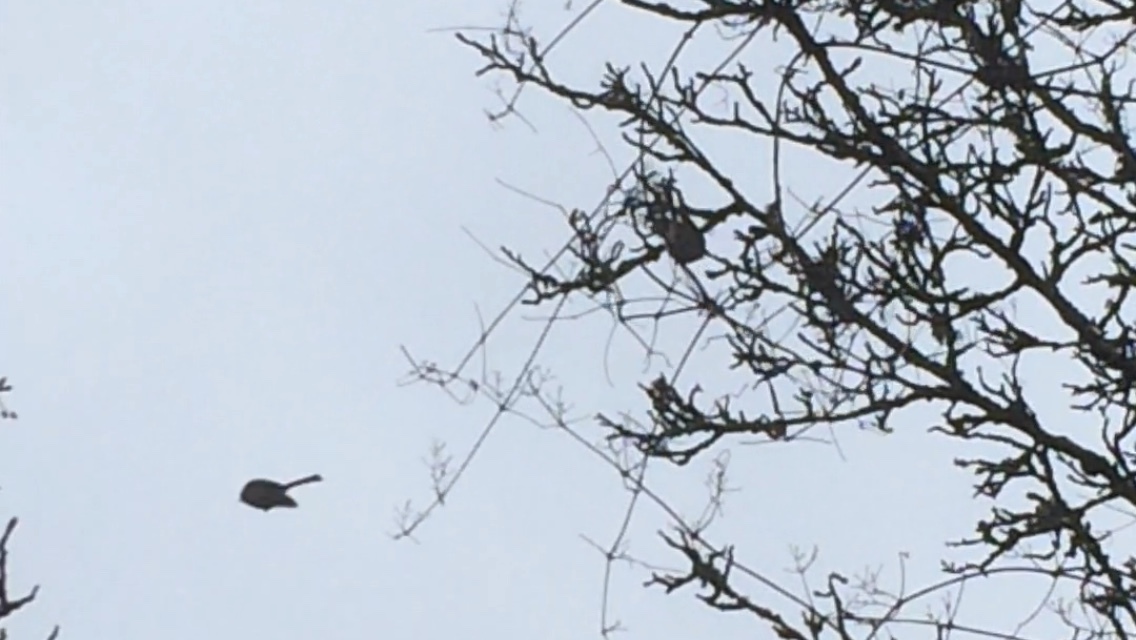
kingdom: Animalia
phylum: Chordata
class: Aves
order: Passeriformes
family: Aegithalidae
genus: Psaltriparus
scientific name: Psaltriparus minimus
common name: American bushtit
